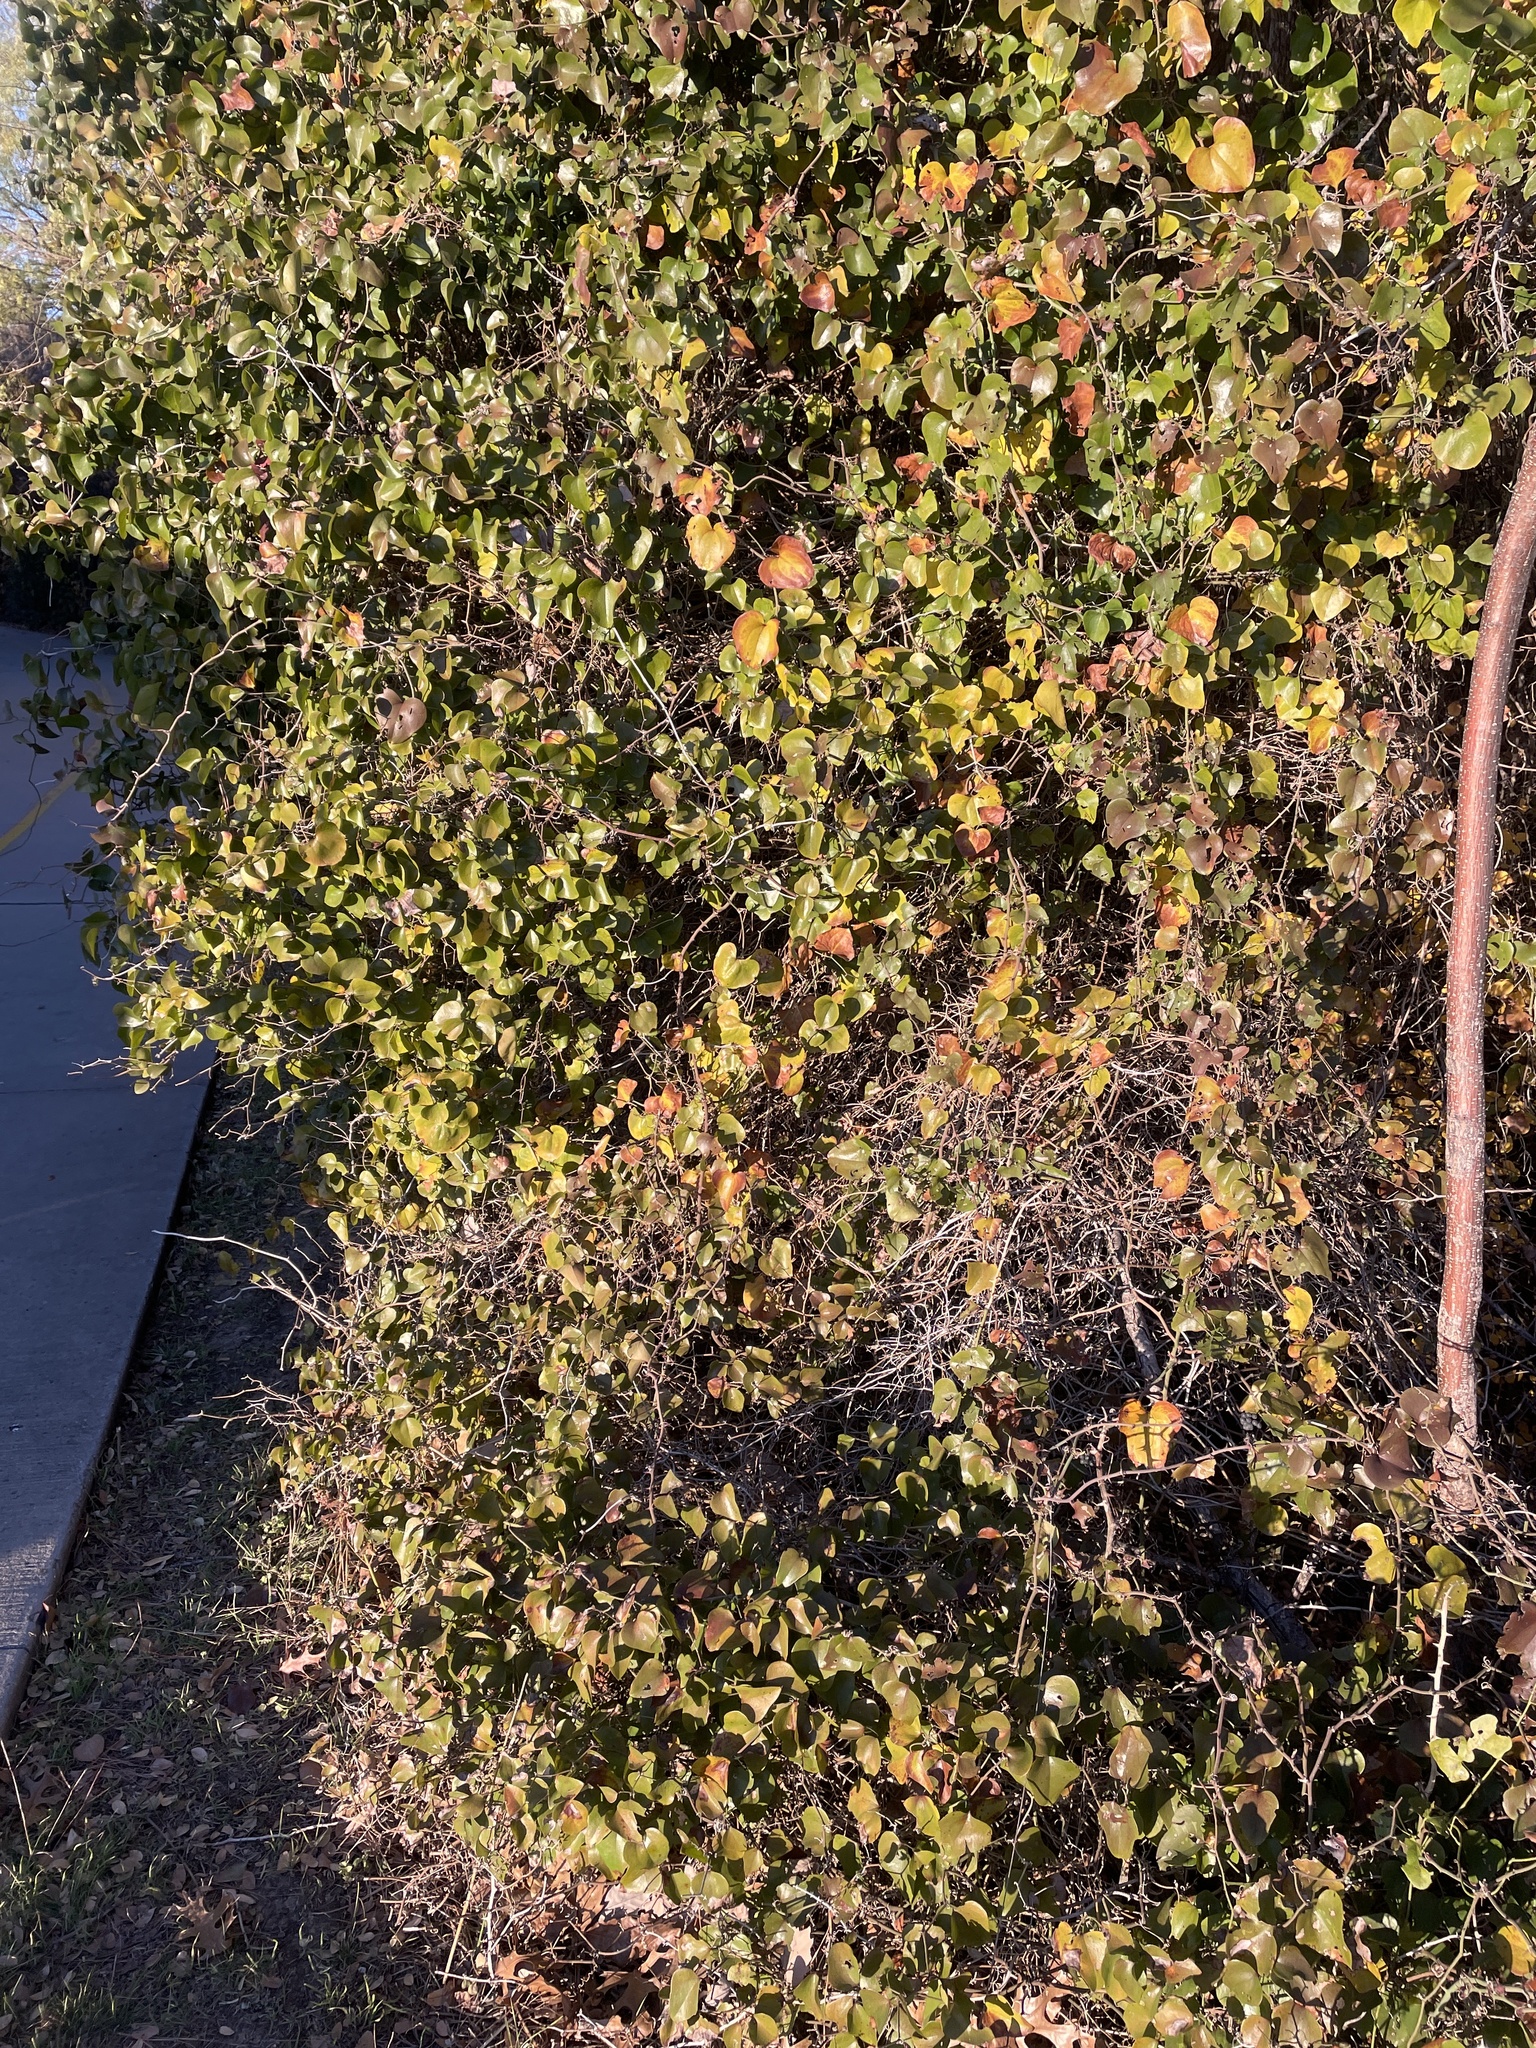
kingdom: Plantae
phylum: Tracheophyta
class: Liliopsida
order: Liliales
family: Smilacaceae
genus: Smilax
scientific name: Smilax bona-nox
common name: Catbrier
